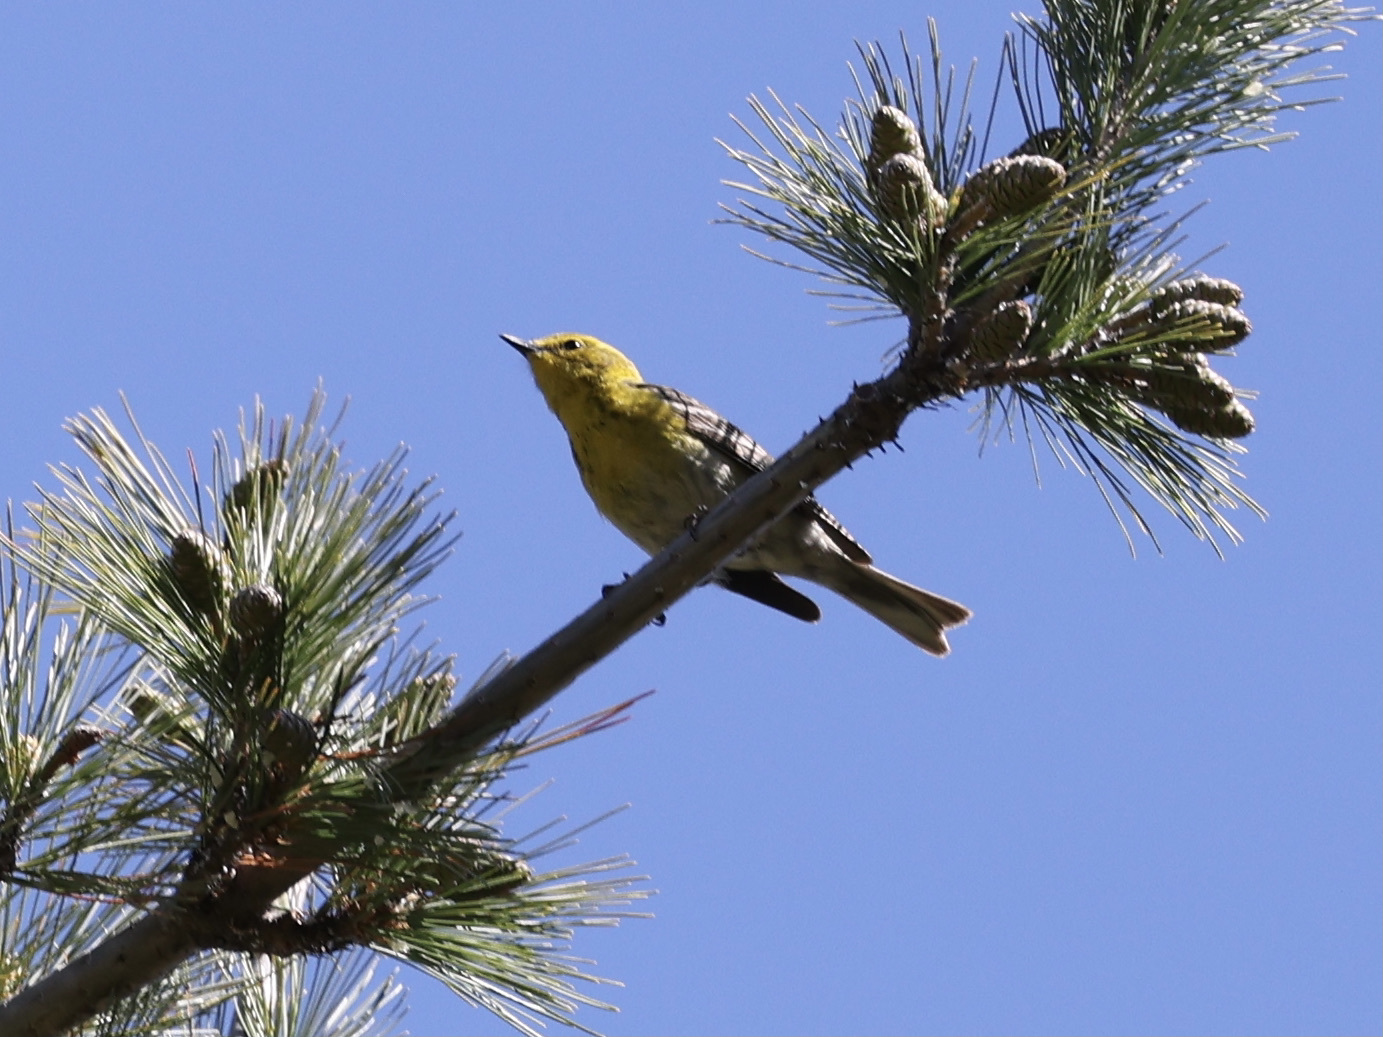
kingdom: Animalia
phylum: Chordata
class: Aves
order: Passeriformes
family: Parulidae
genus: Setophaga
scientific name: Setophaga pinus
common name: Pine warbler
